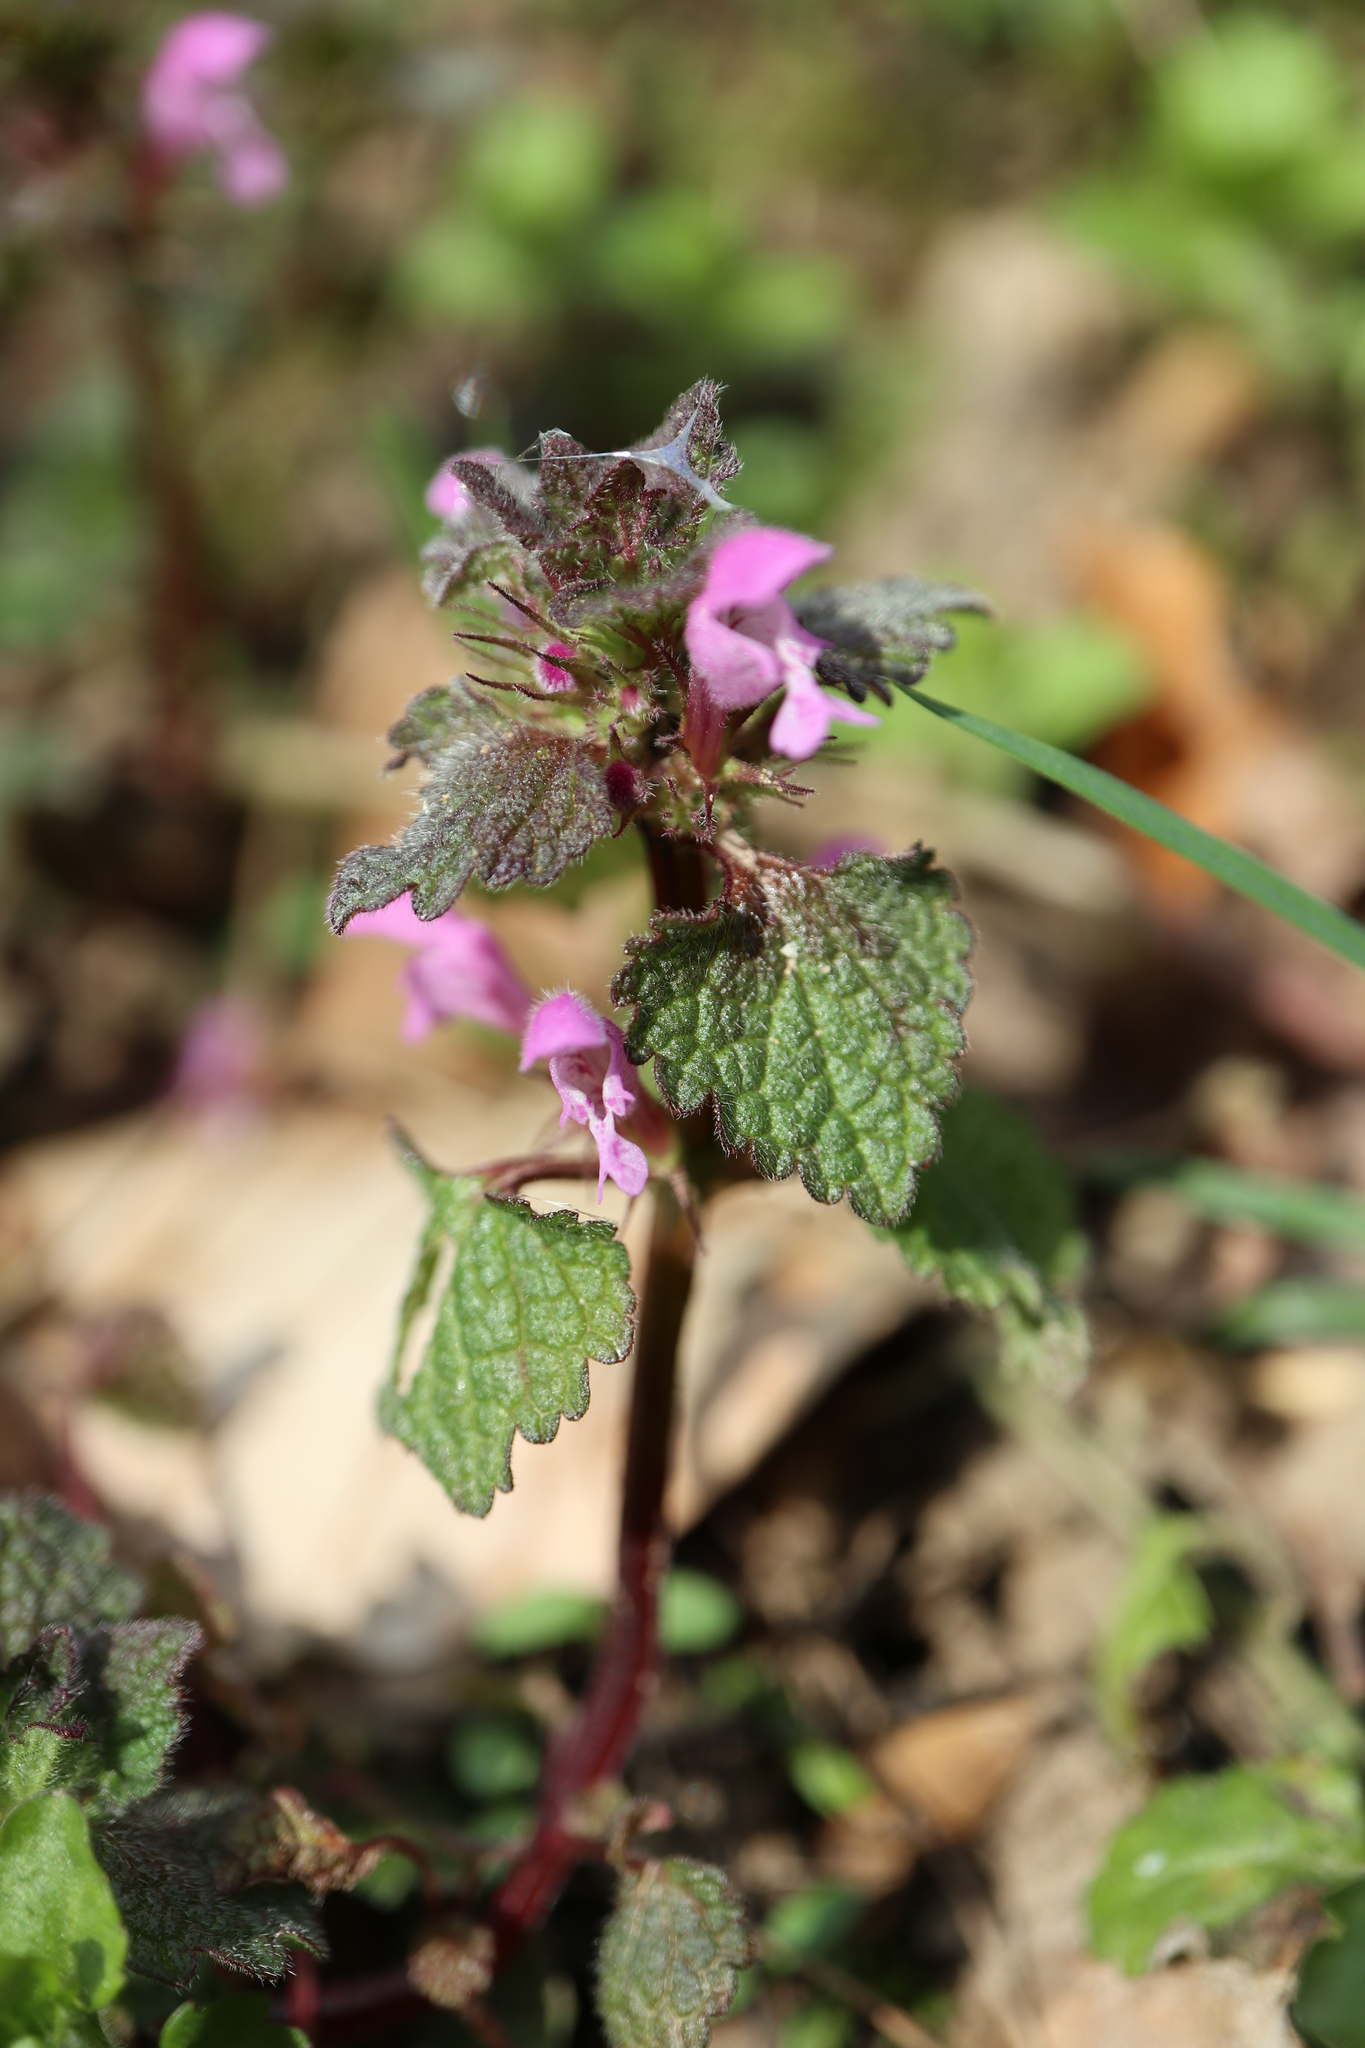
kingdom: Plantae
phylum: Tracheophyta
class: Magnoliopsida
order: Lamiales
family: Lamiaceae
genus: Lamium
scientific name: Lamium purpureum
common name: Red dead-nettle
